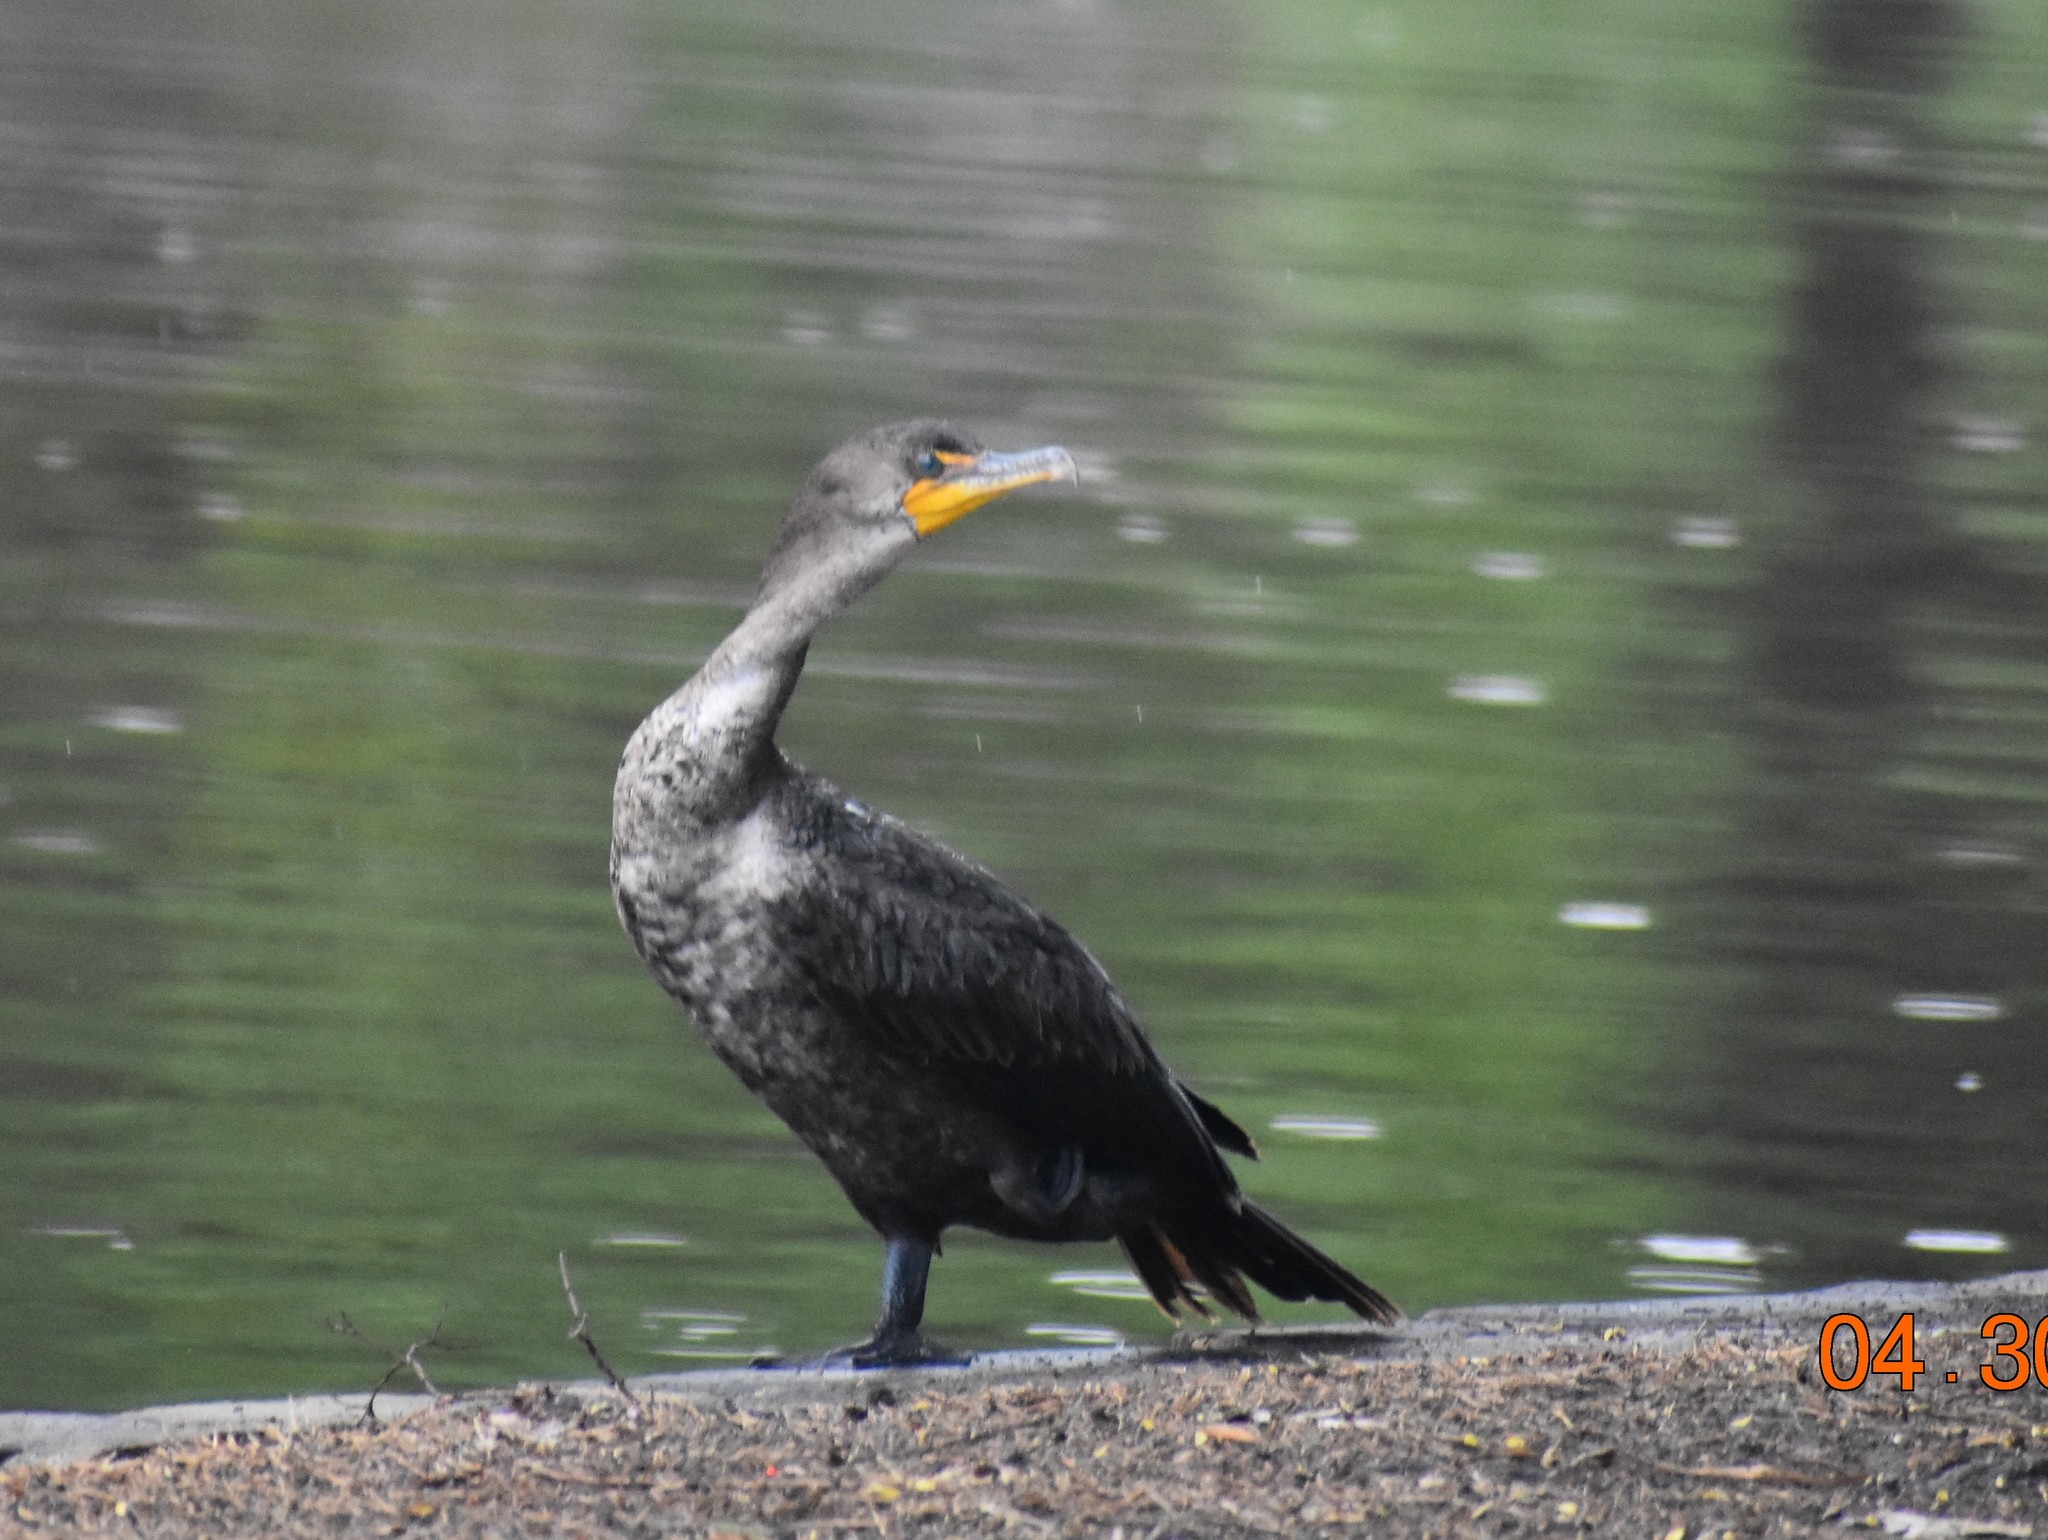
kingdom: Animalia
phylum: Chordata
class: Aves
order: Suliformes
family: Phalacrocoracidae
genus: Phalacrocorax
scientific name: Phalacrocorax auritus
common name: Double-crested cormorant
